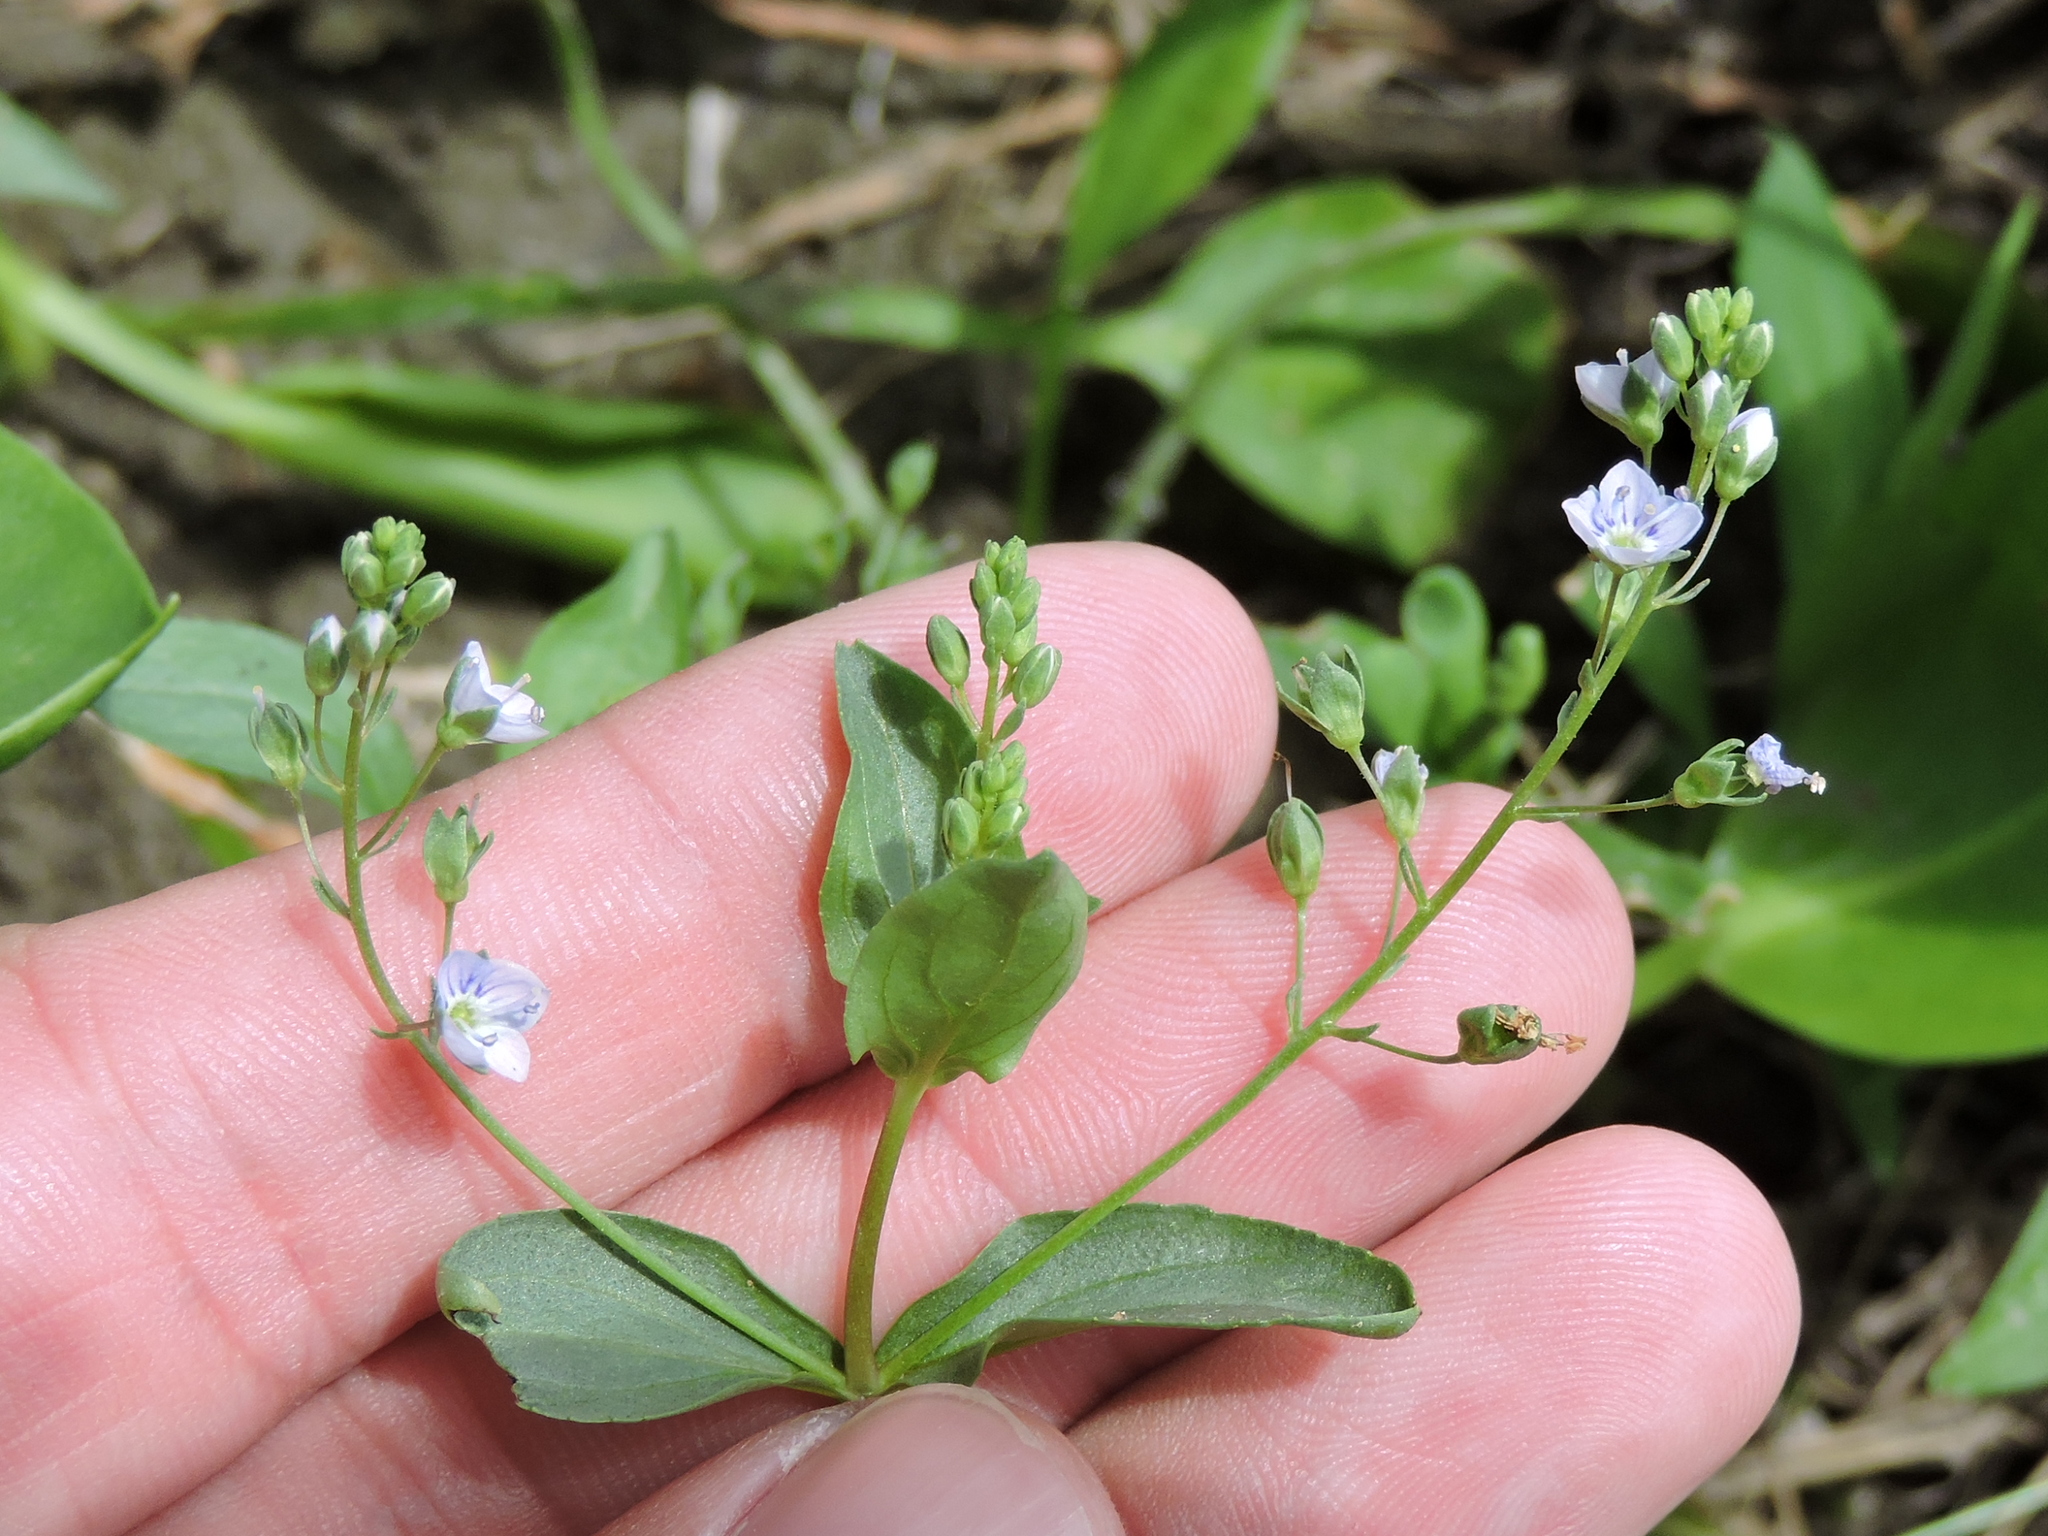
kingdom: Plantae
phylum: Tracheophyta
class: Magnoliopsida
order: Lamiales
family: Plantaginaceae
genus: Veronica
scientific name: Veronica anagallis-aquatica
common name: Water speedwell
